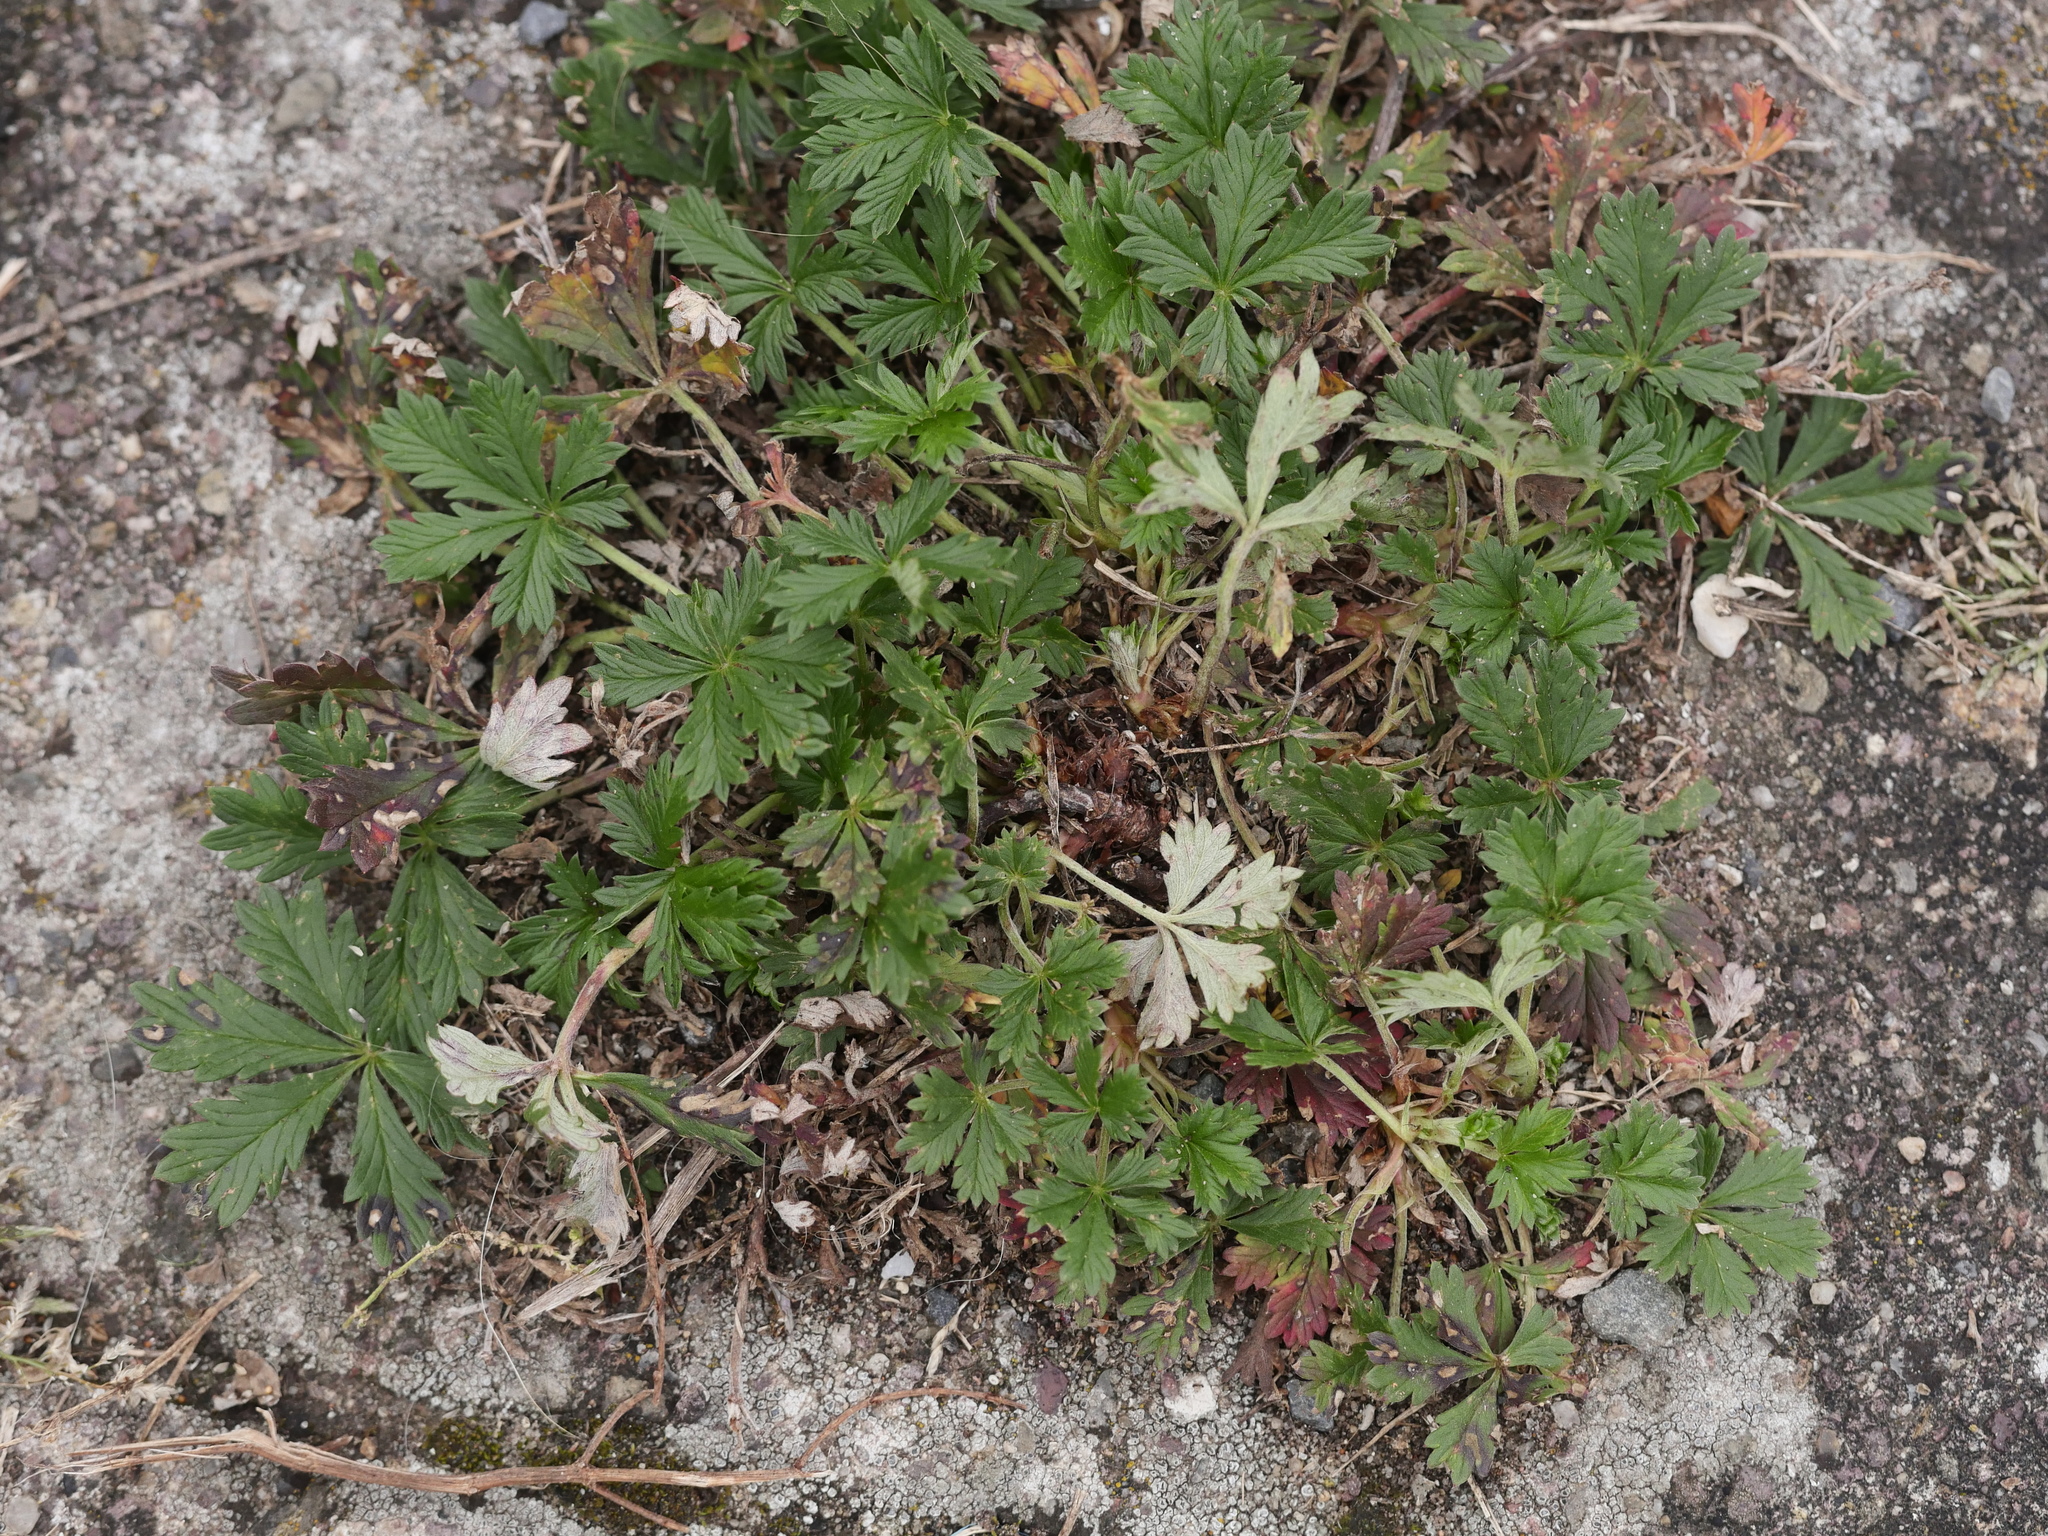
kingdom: Plantae
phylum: Tracheophyta
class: Magnoliopsida
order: Rosales
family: Rosaceae
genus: Potentilla
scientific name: Potentilla argentea
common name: Hoary cinquefoil
